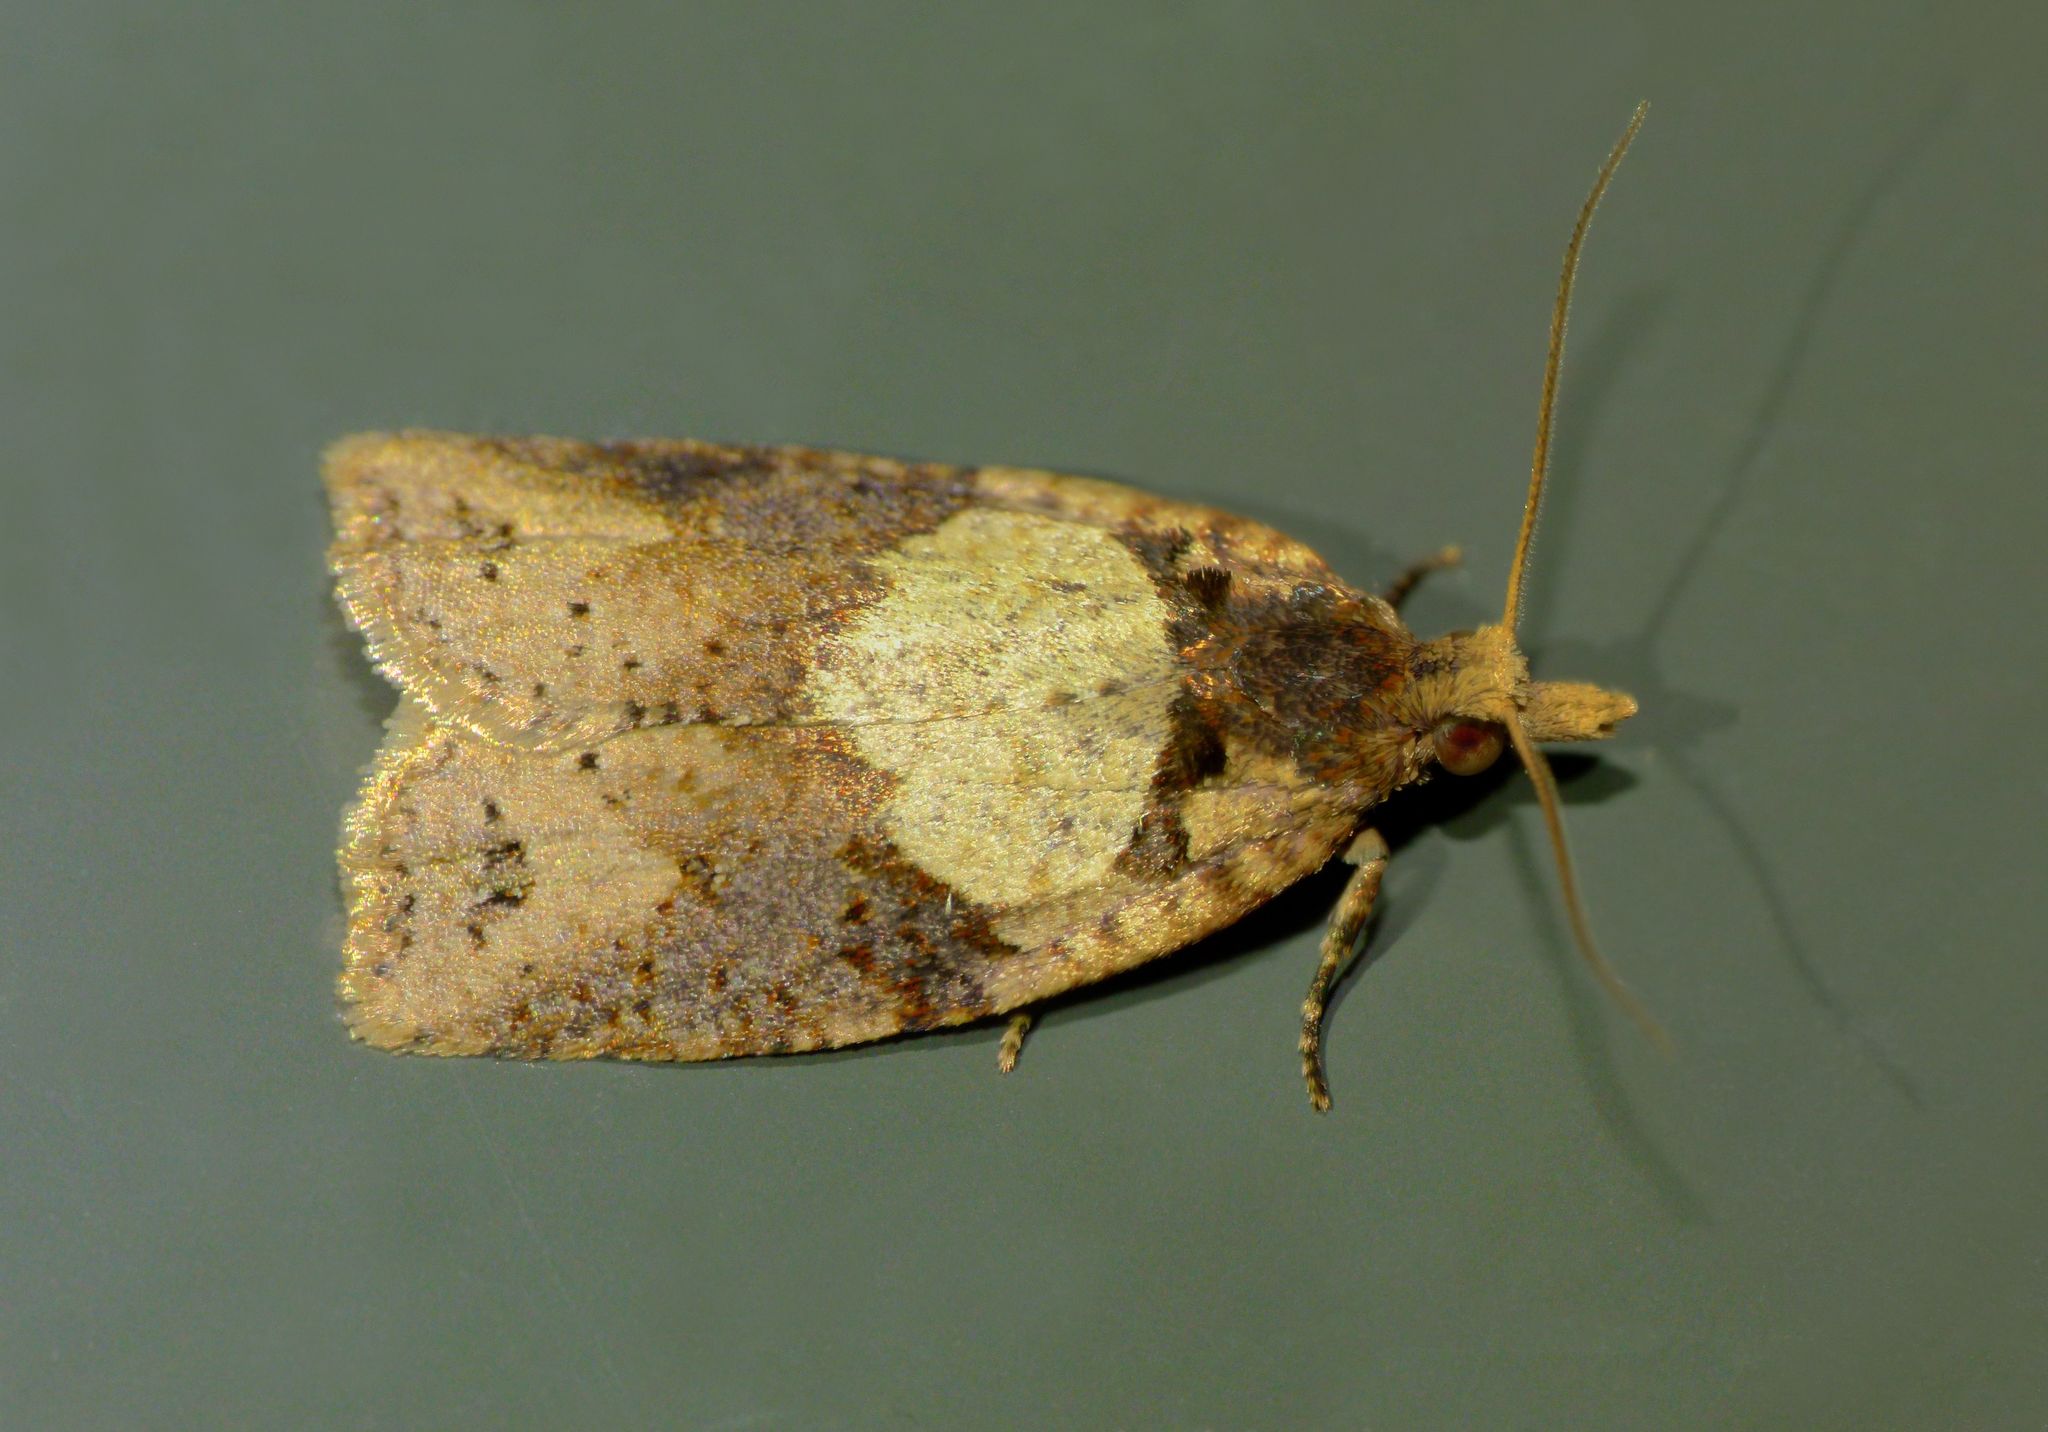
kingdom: Animalia
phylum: Arthropoda
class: Insecta
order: Lepidoptera
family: Tortricidae
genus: Epiphyas
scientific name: Epiphyas postvittana
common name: Light brown apple moth
